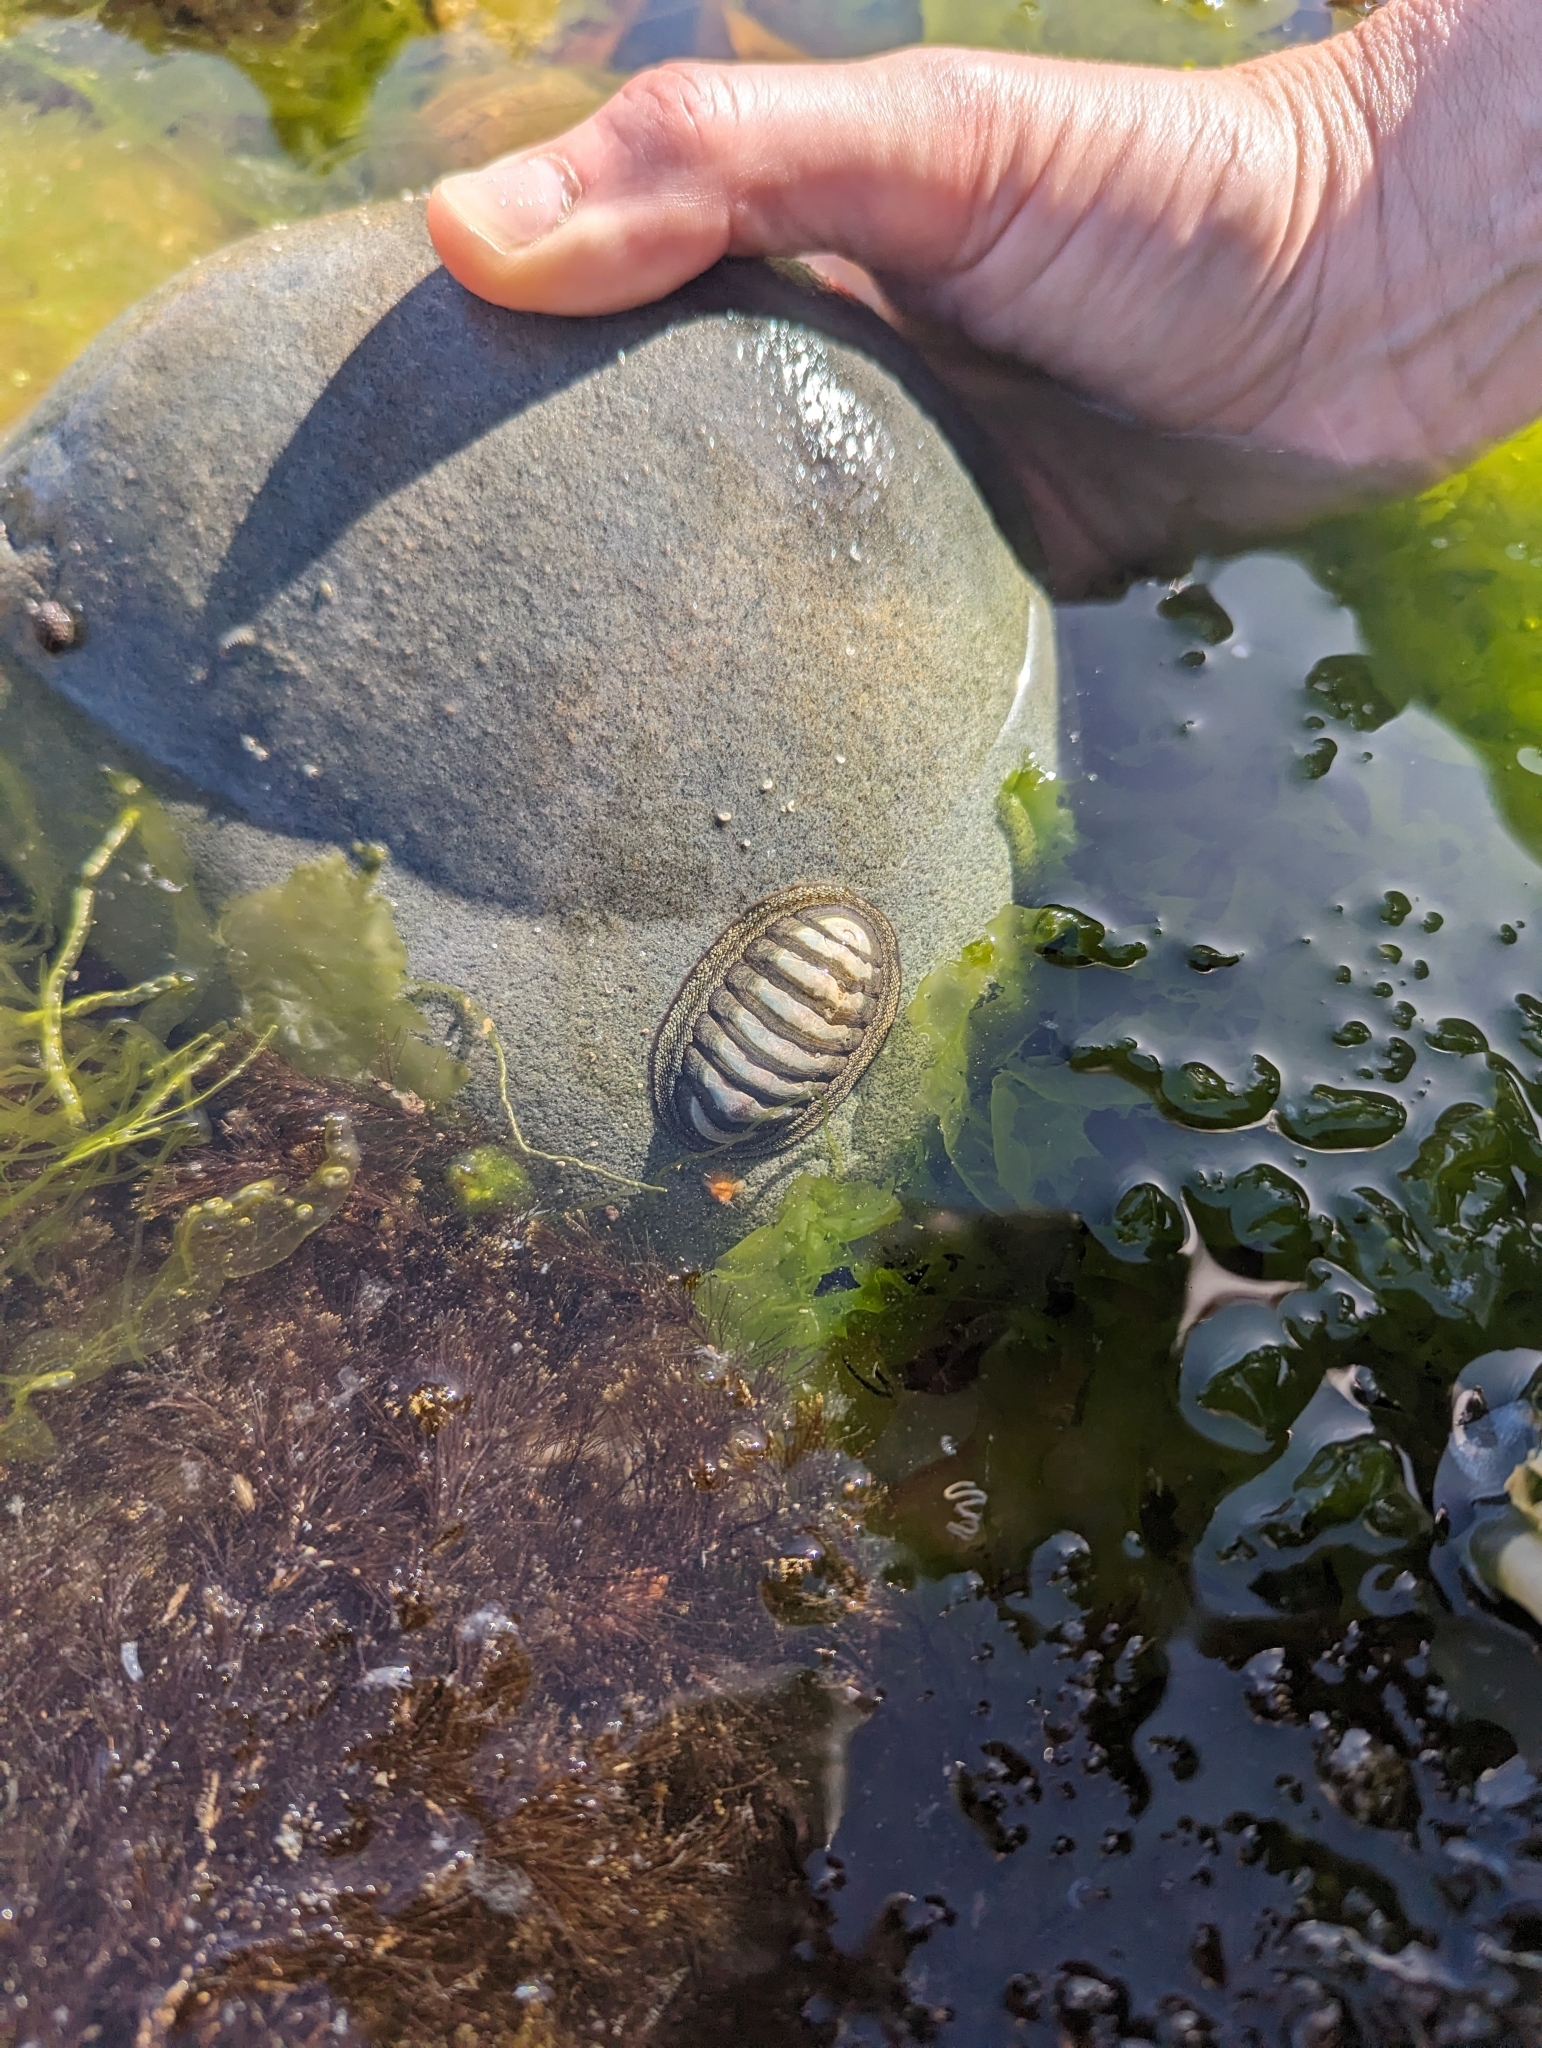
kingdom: Animalia
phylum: Mollusca
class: Polyplacophora
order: Chitonida
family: Chitonidae
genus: Chiton
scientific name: Chiton glaucus
